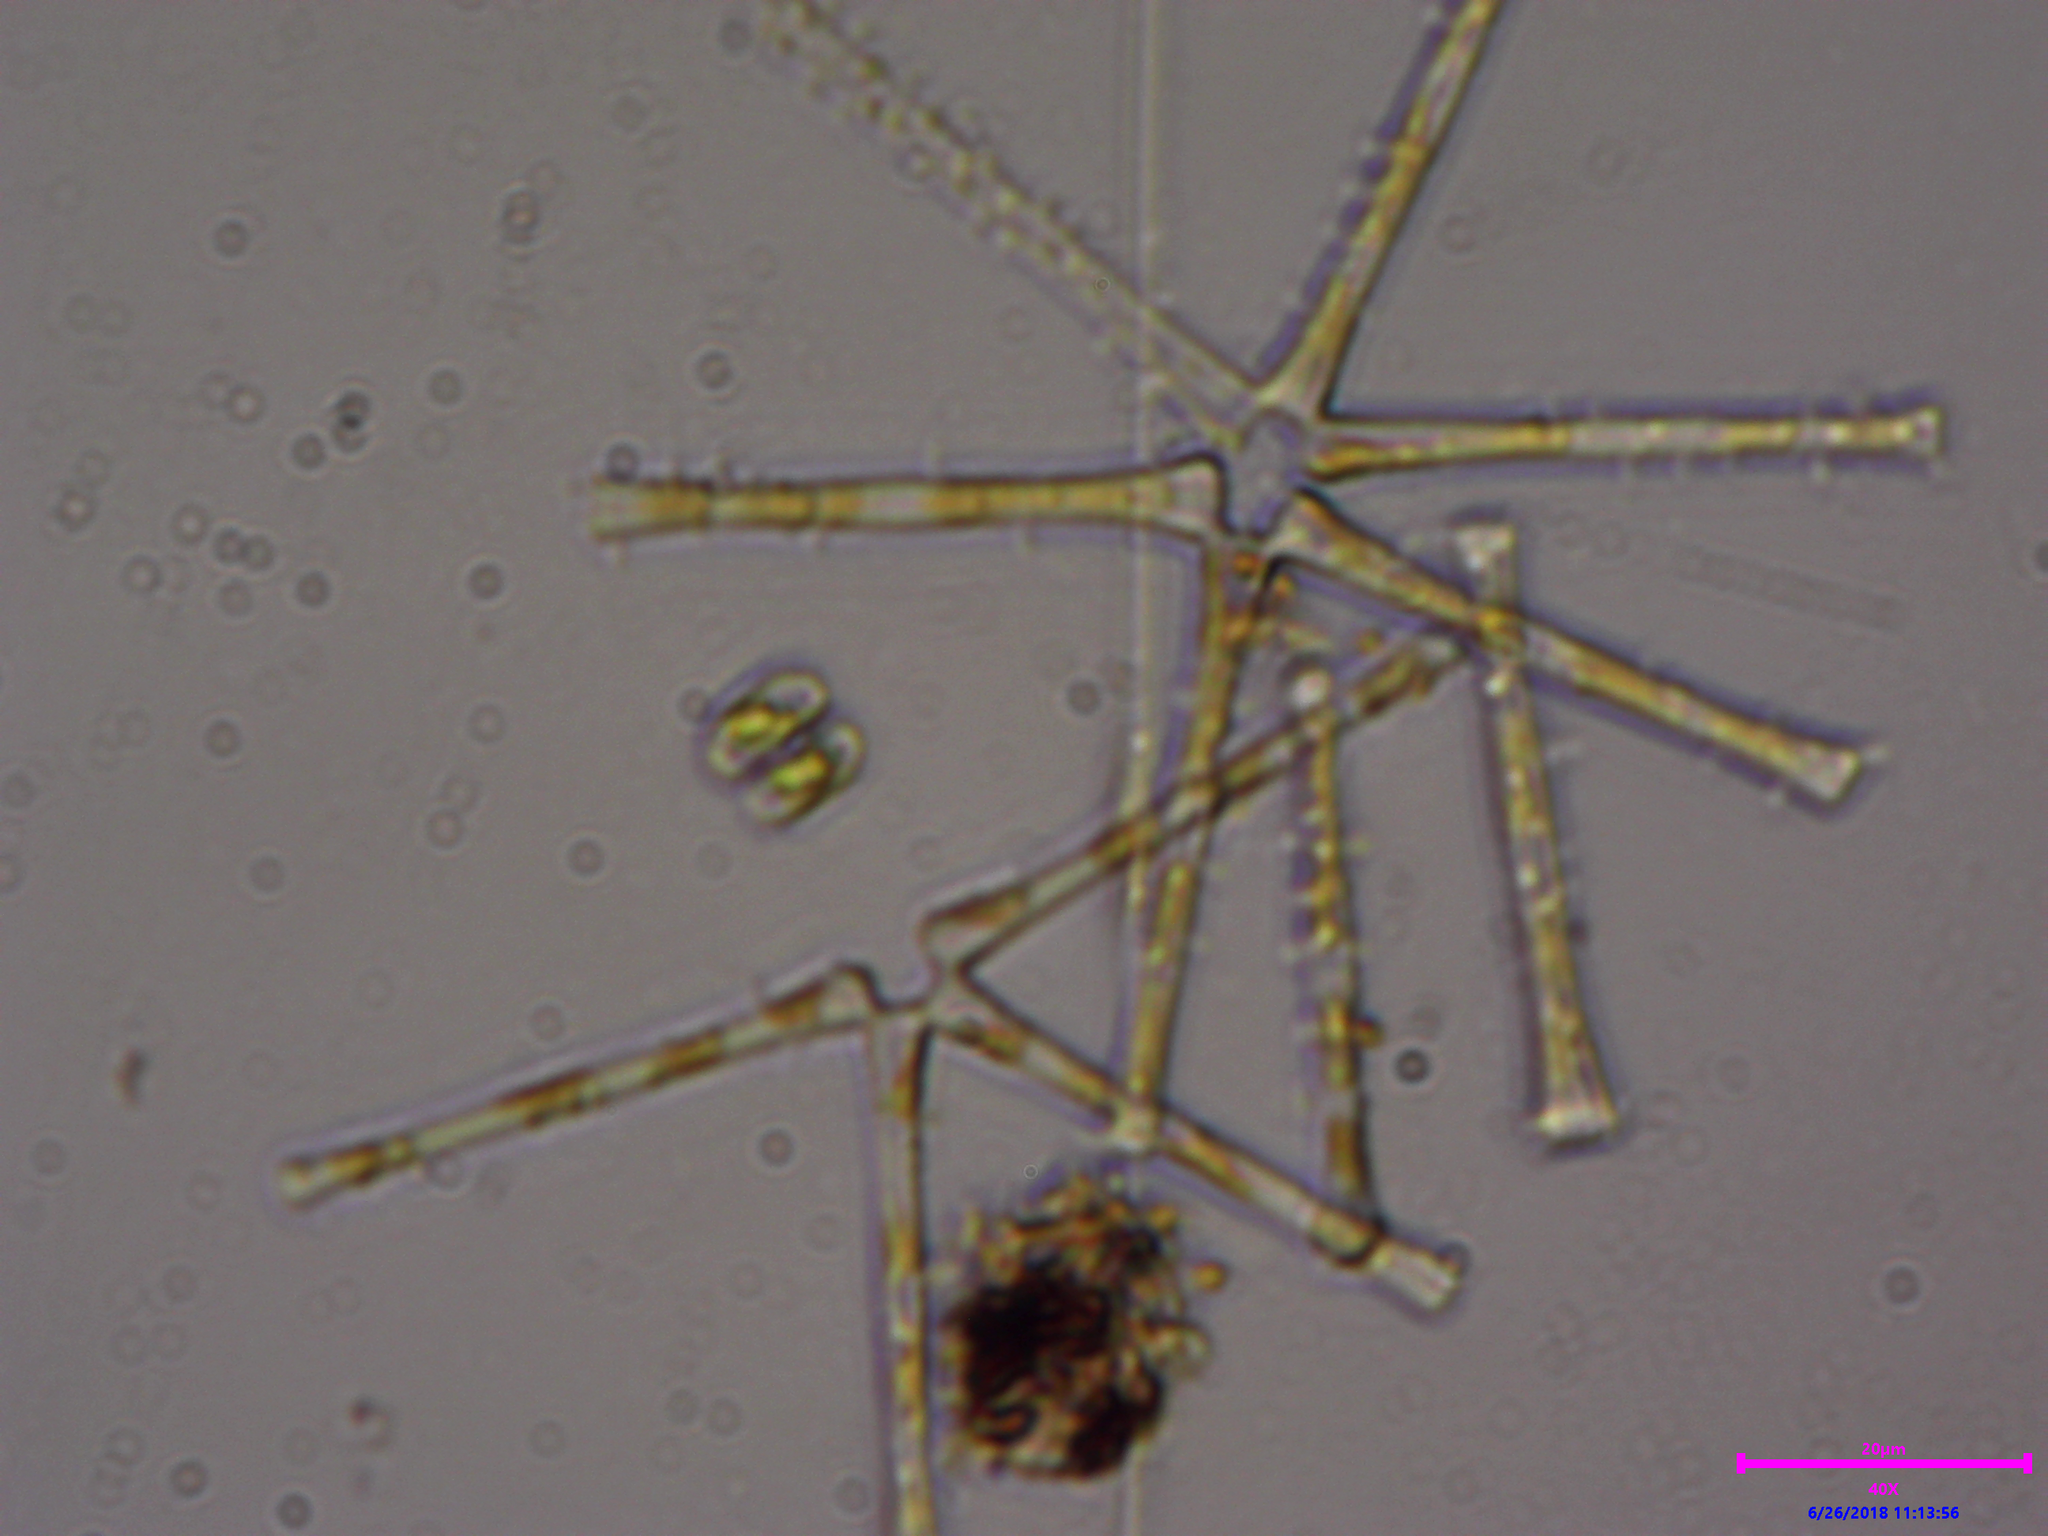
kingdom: Chromista
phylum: Ochrophyta
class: Bacillariophyceae
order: Fragilariales
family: Fragilariaceae
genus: Asterionella
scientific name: Asterionella formosa
